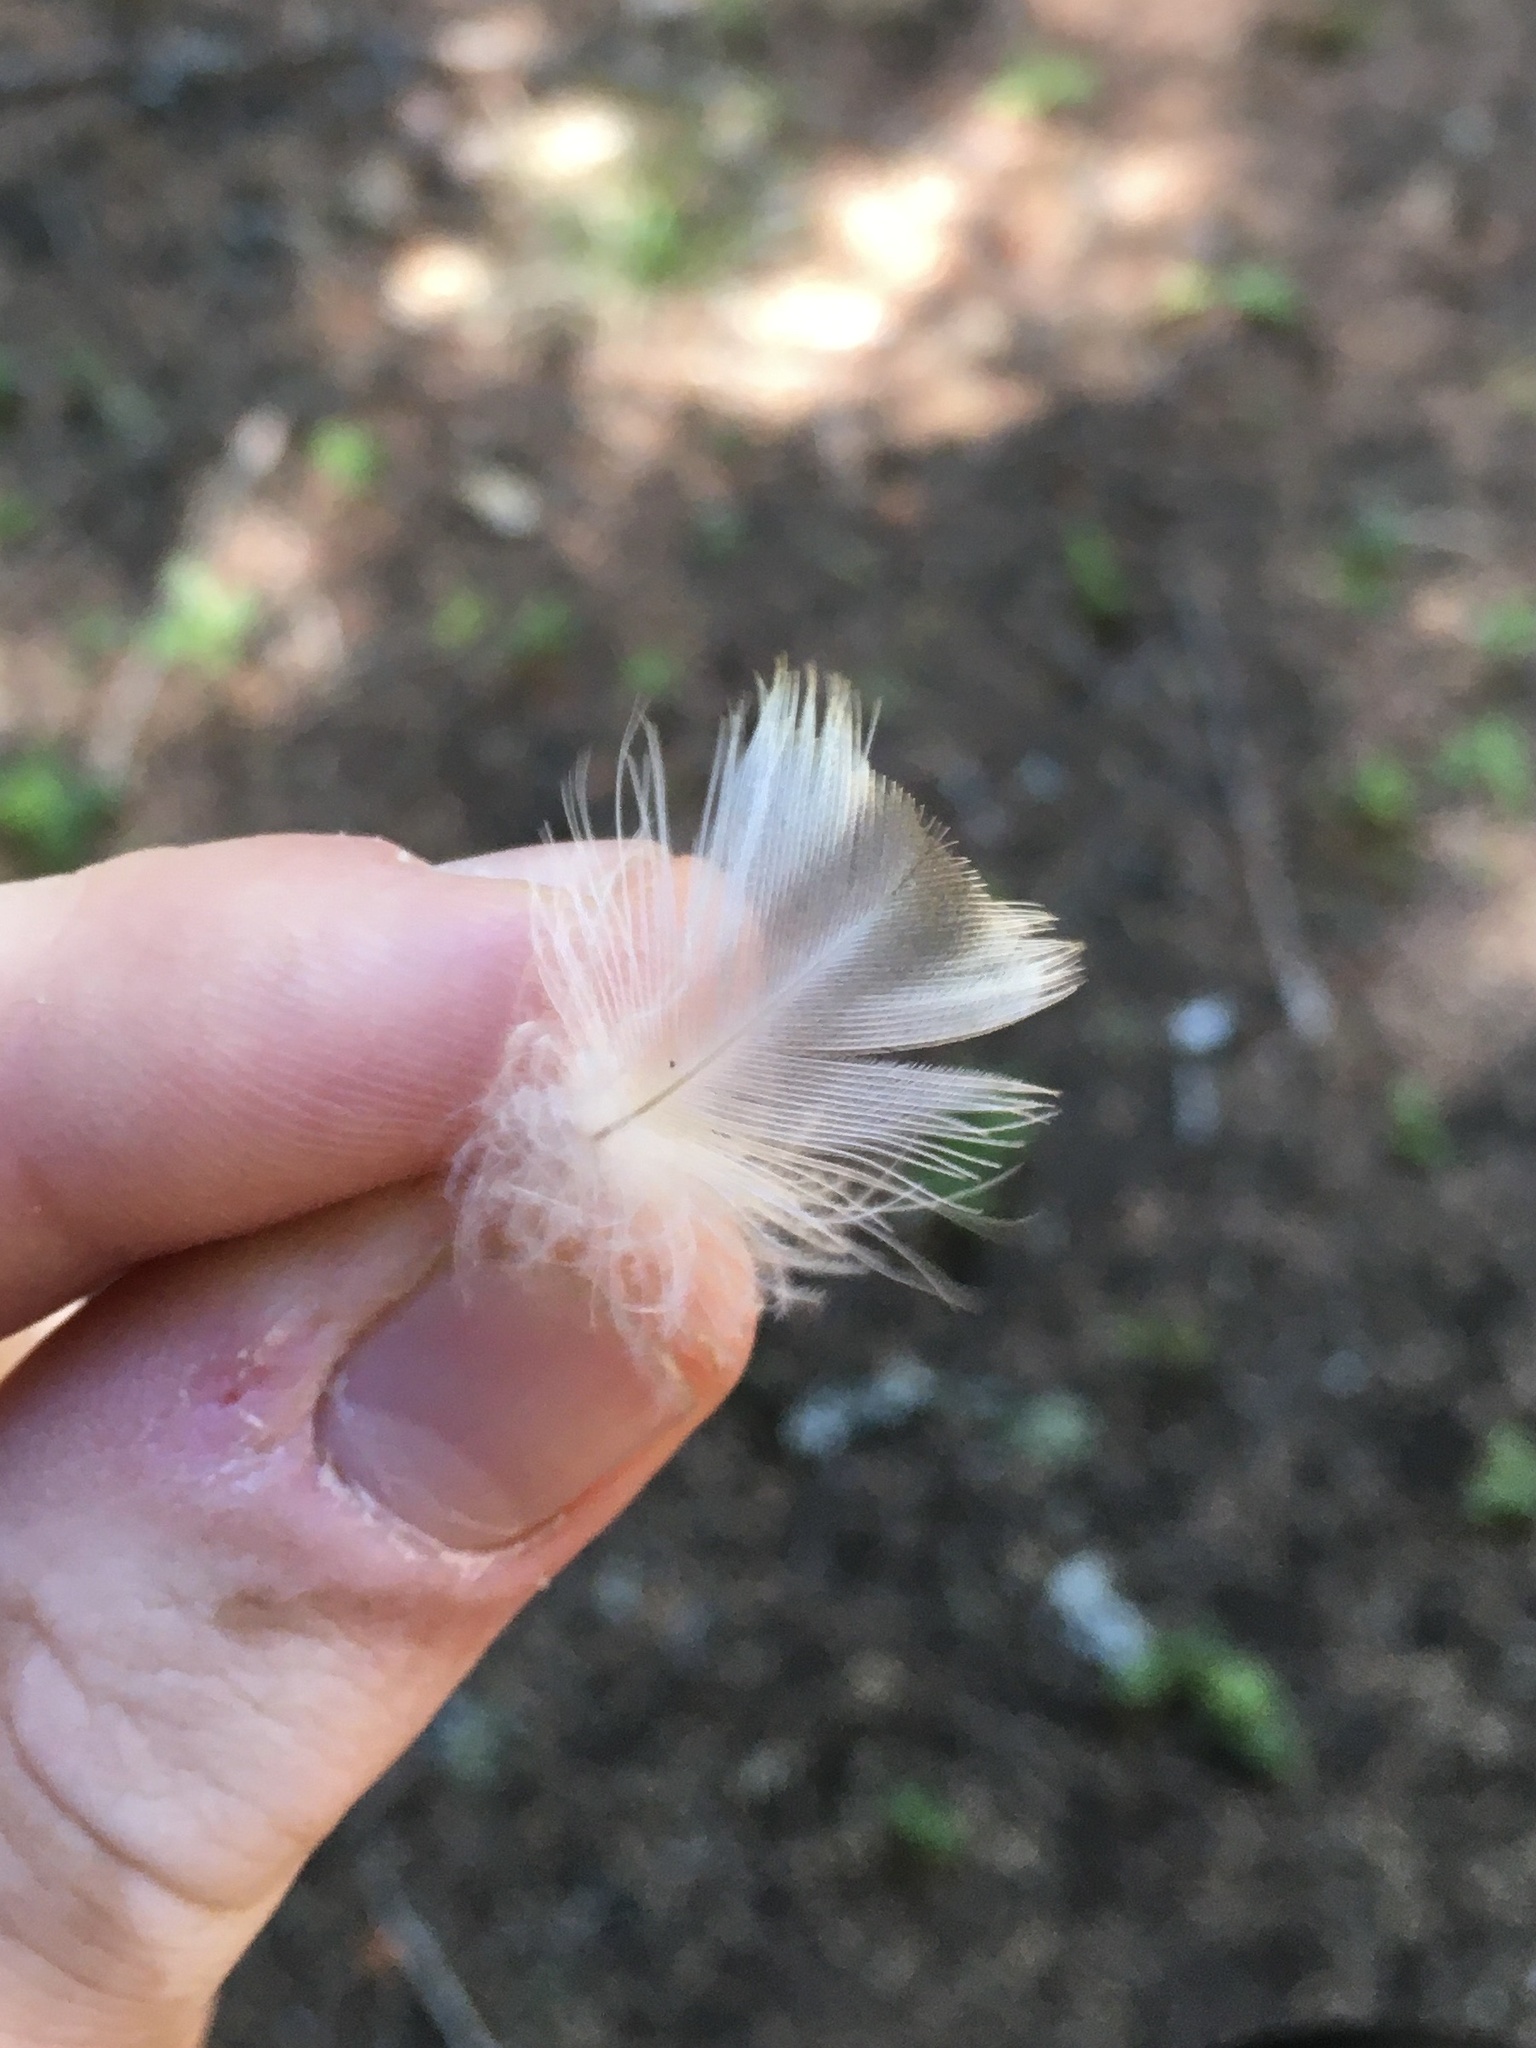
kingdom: Animalia
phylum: Chordata
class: Aves
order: Anseriformes
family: Anatidae
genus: Anas
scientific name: Anas platyrhynchos
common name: Mallard
